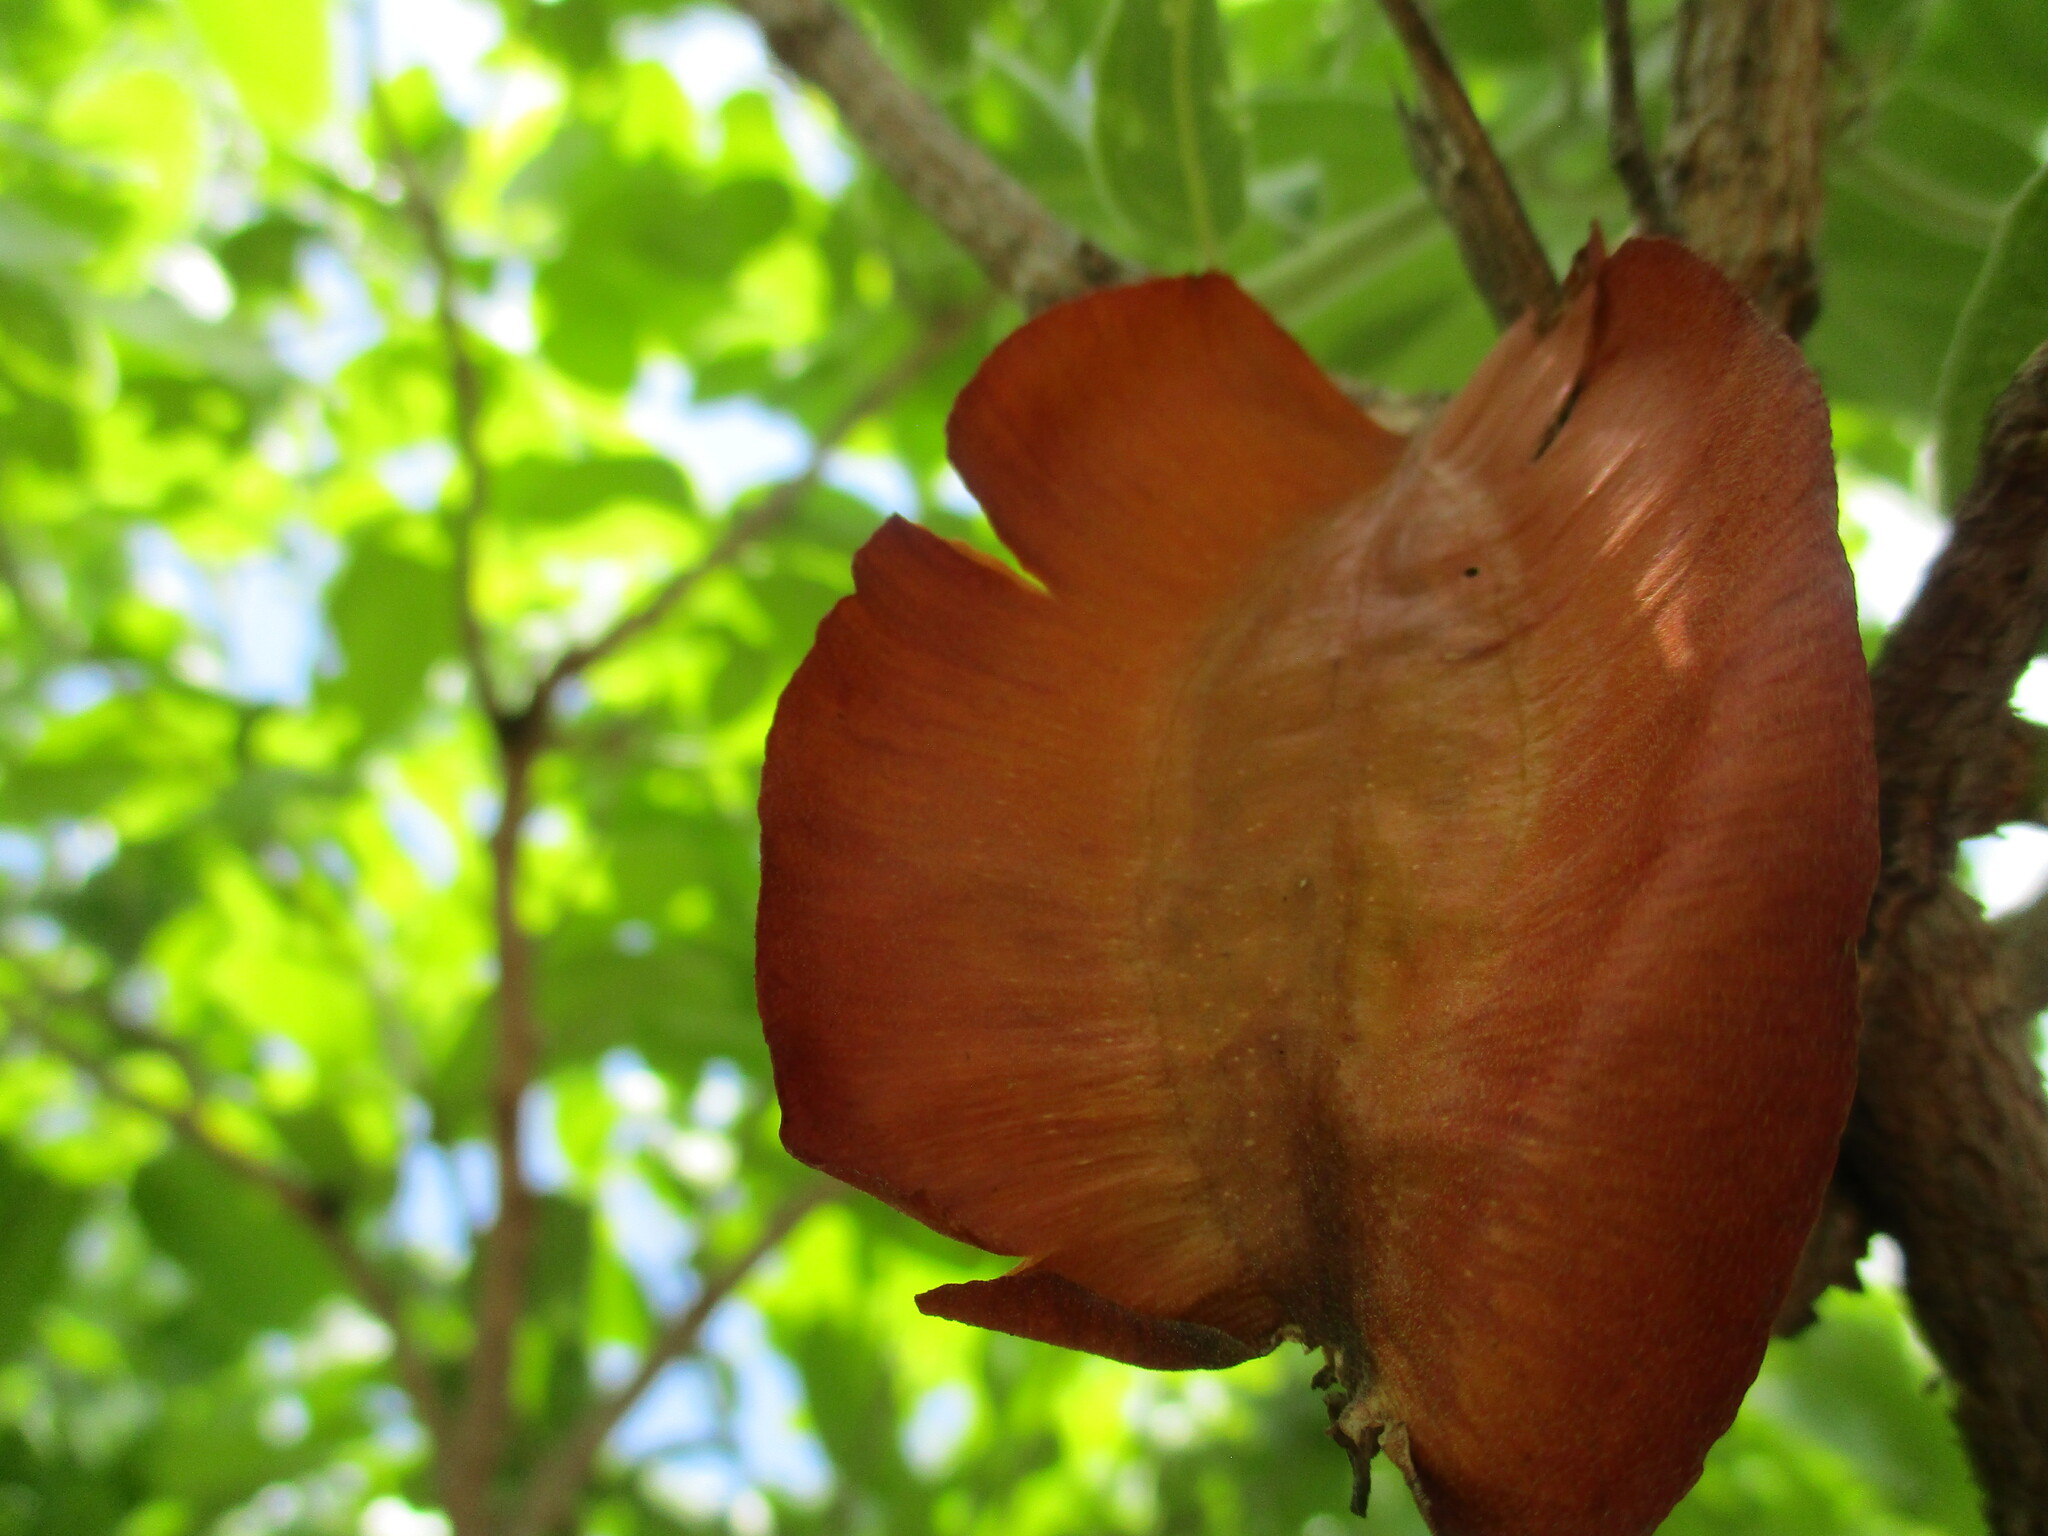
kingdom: Plantae
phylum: Tracheophyta
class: Magnoliopsida
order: Myrtales
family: Combretaceae
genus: Combretum
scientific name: Combretum zeyheri
